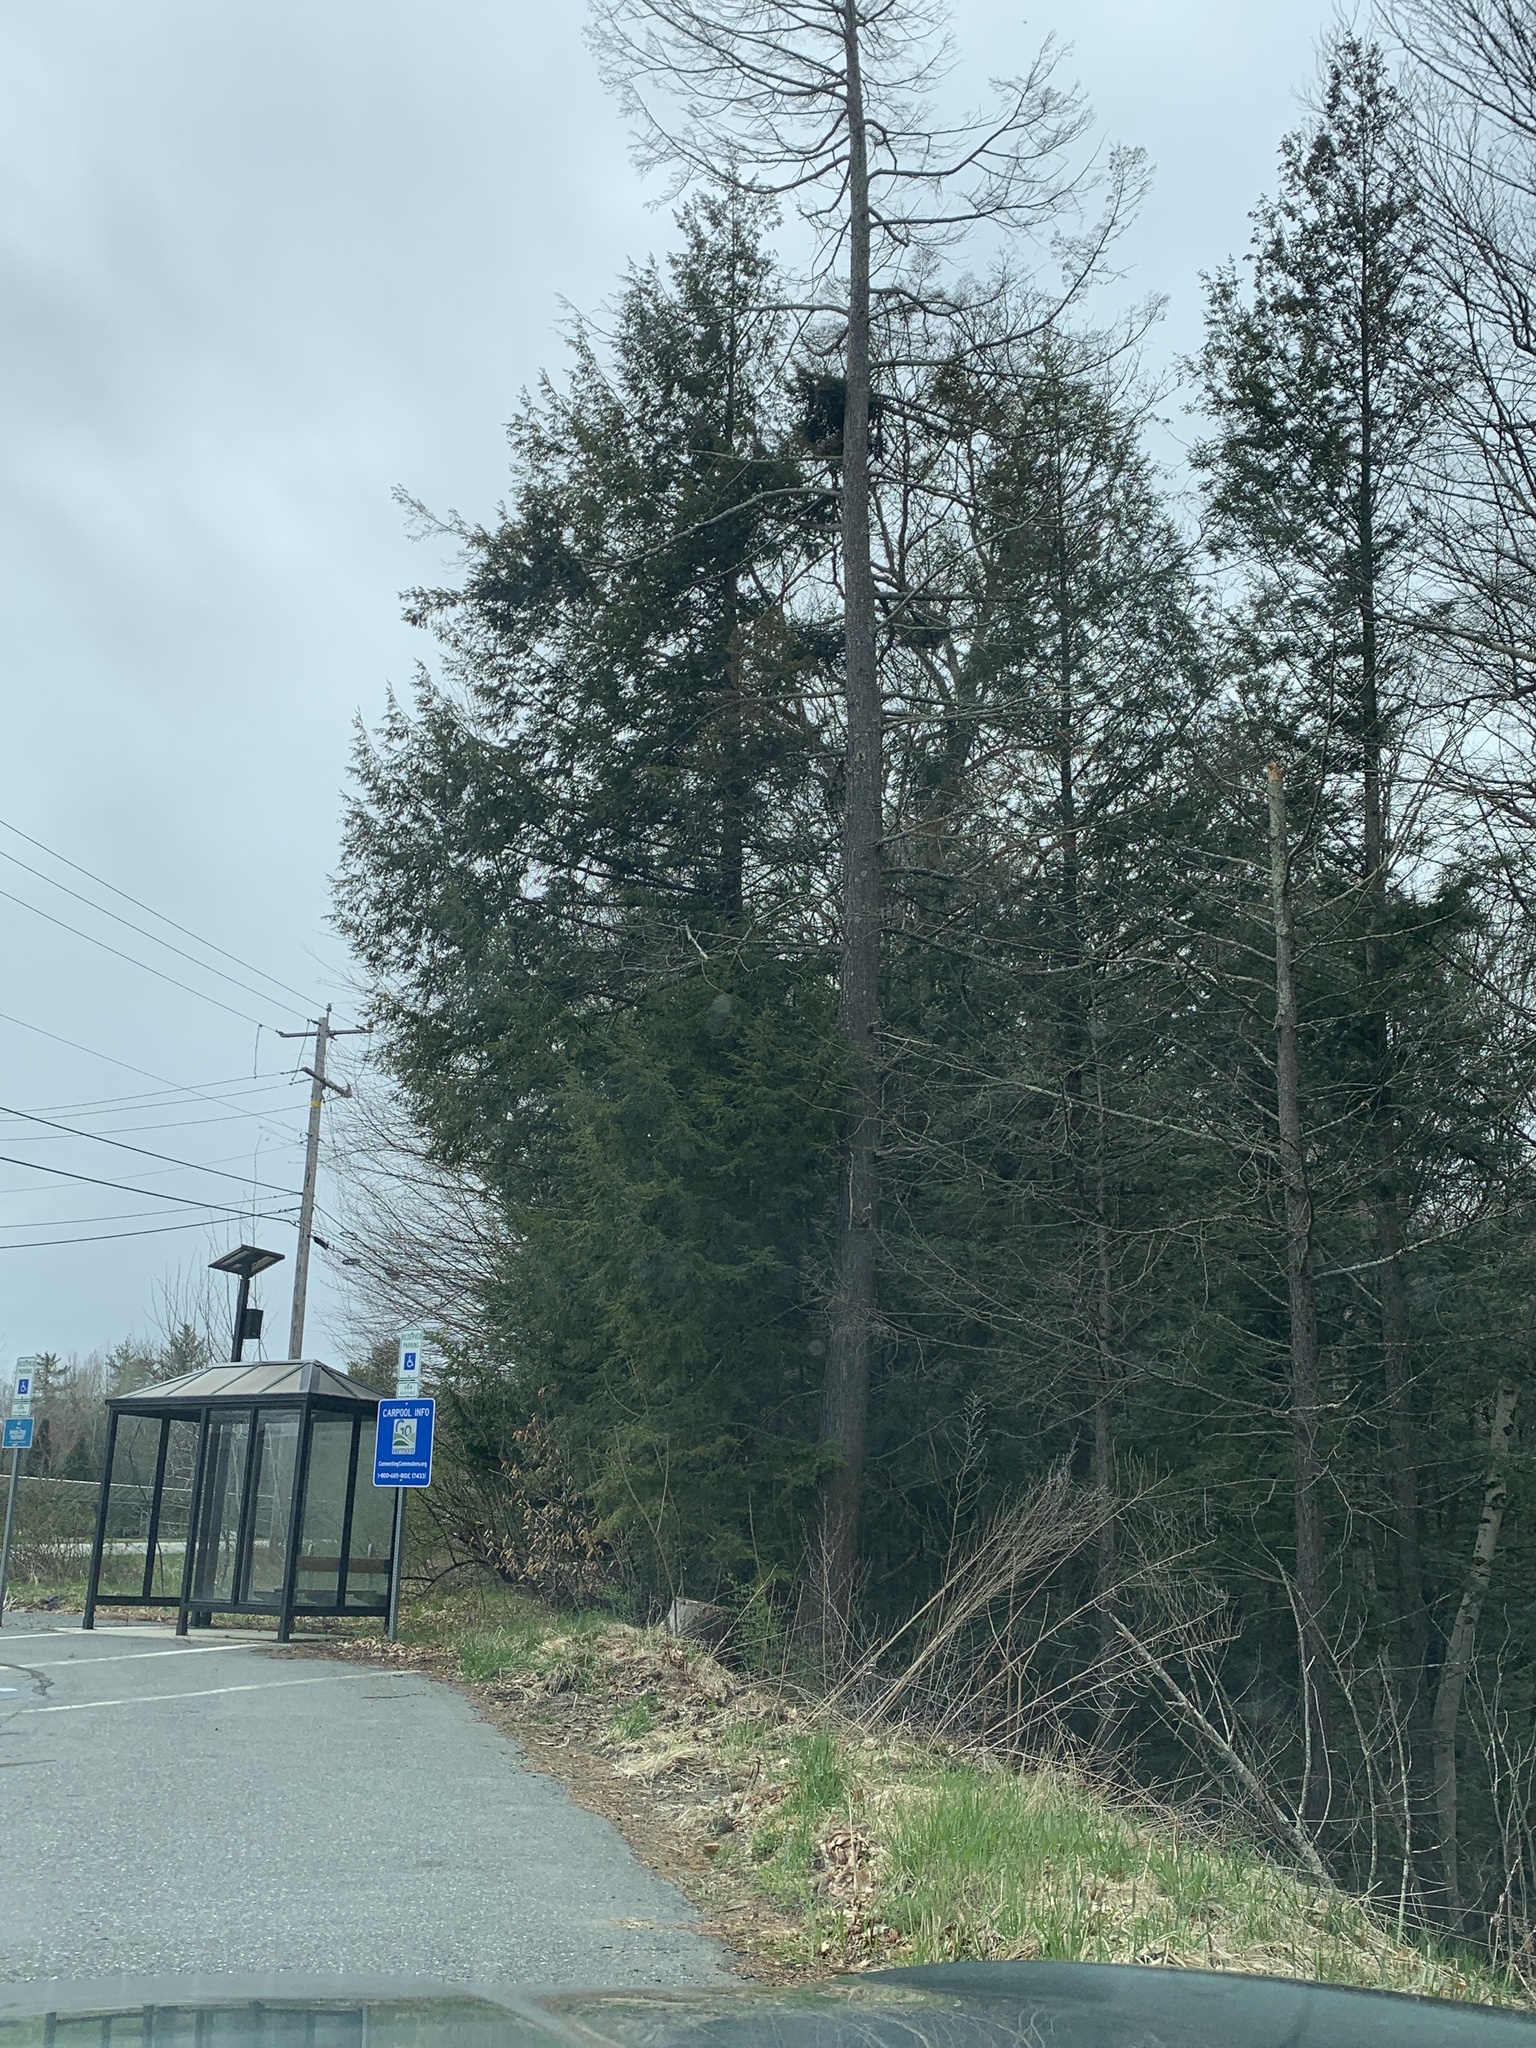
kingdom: Plantae
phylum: Tracheophyta
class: Pinopsida
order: Pinales
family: Pinaceae
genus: Tsuga
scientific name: Tsuga canadensis
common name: Eastern hemlock
